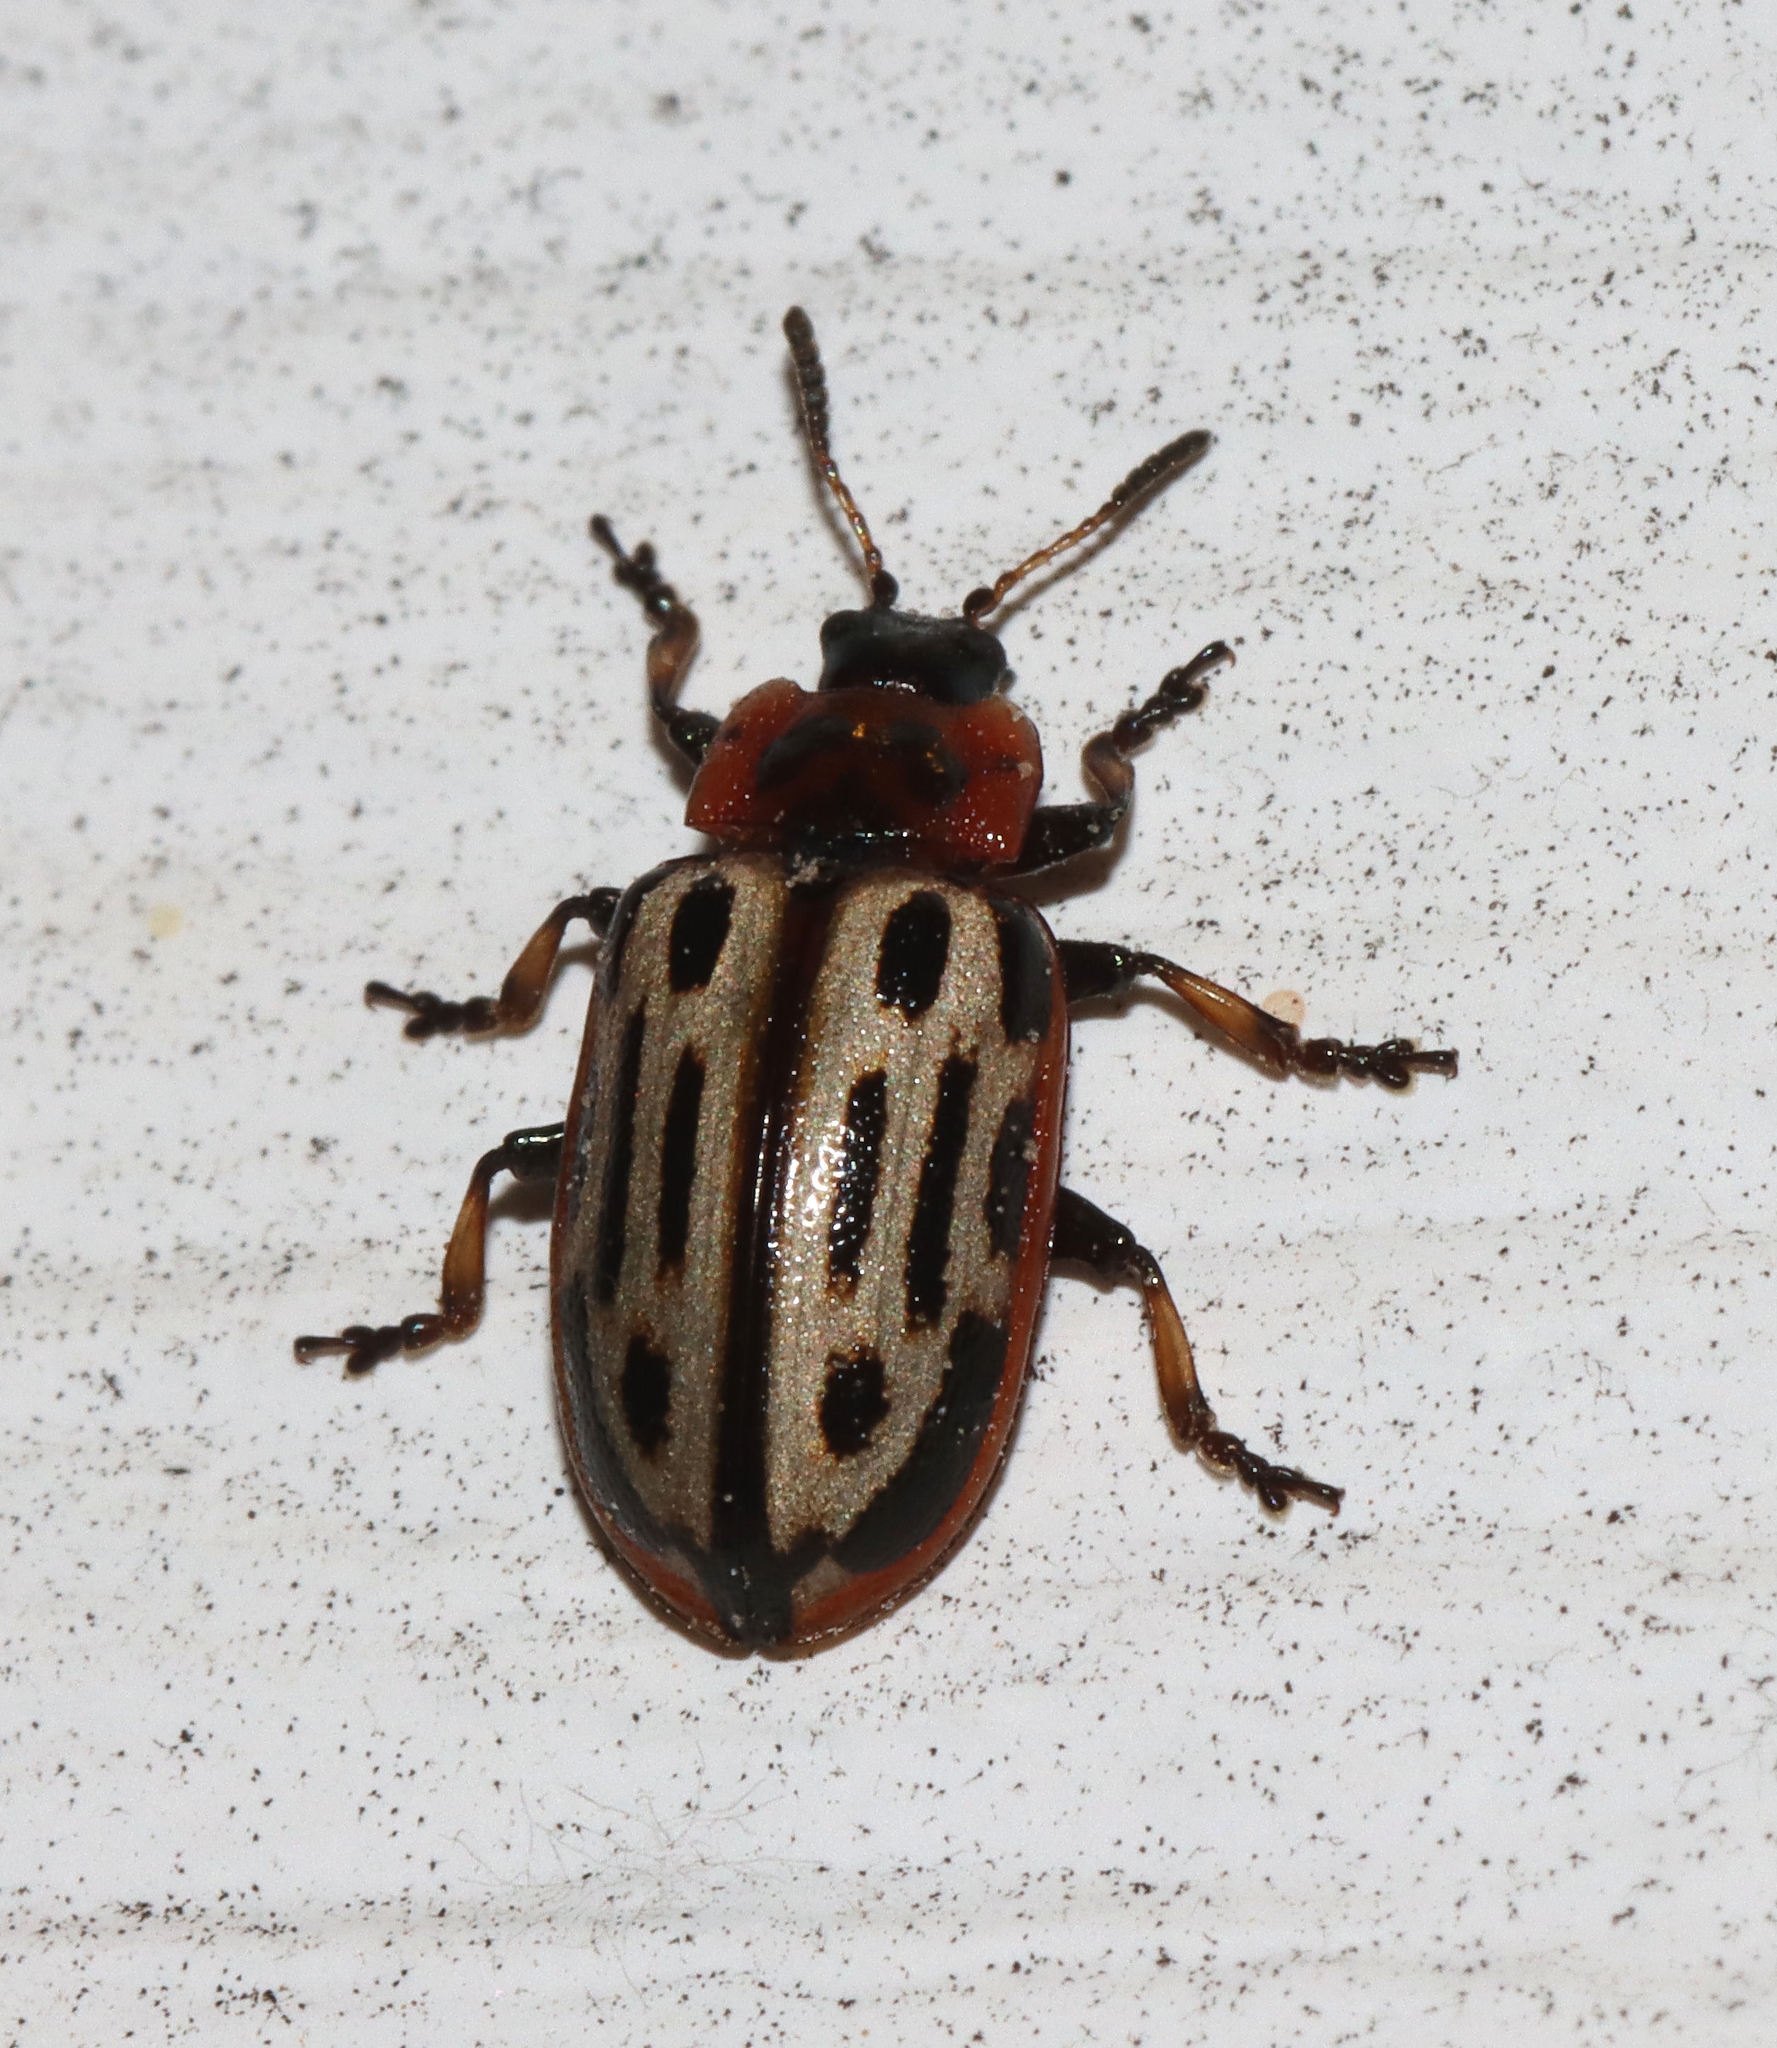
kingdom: Animalia
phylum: Arthropoda
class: Insecta
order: Coleoptera
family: Chrysomelidae
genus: Aethiopocassis
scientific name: Aethiopocassis scripta
